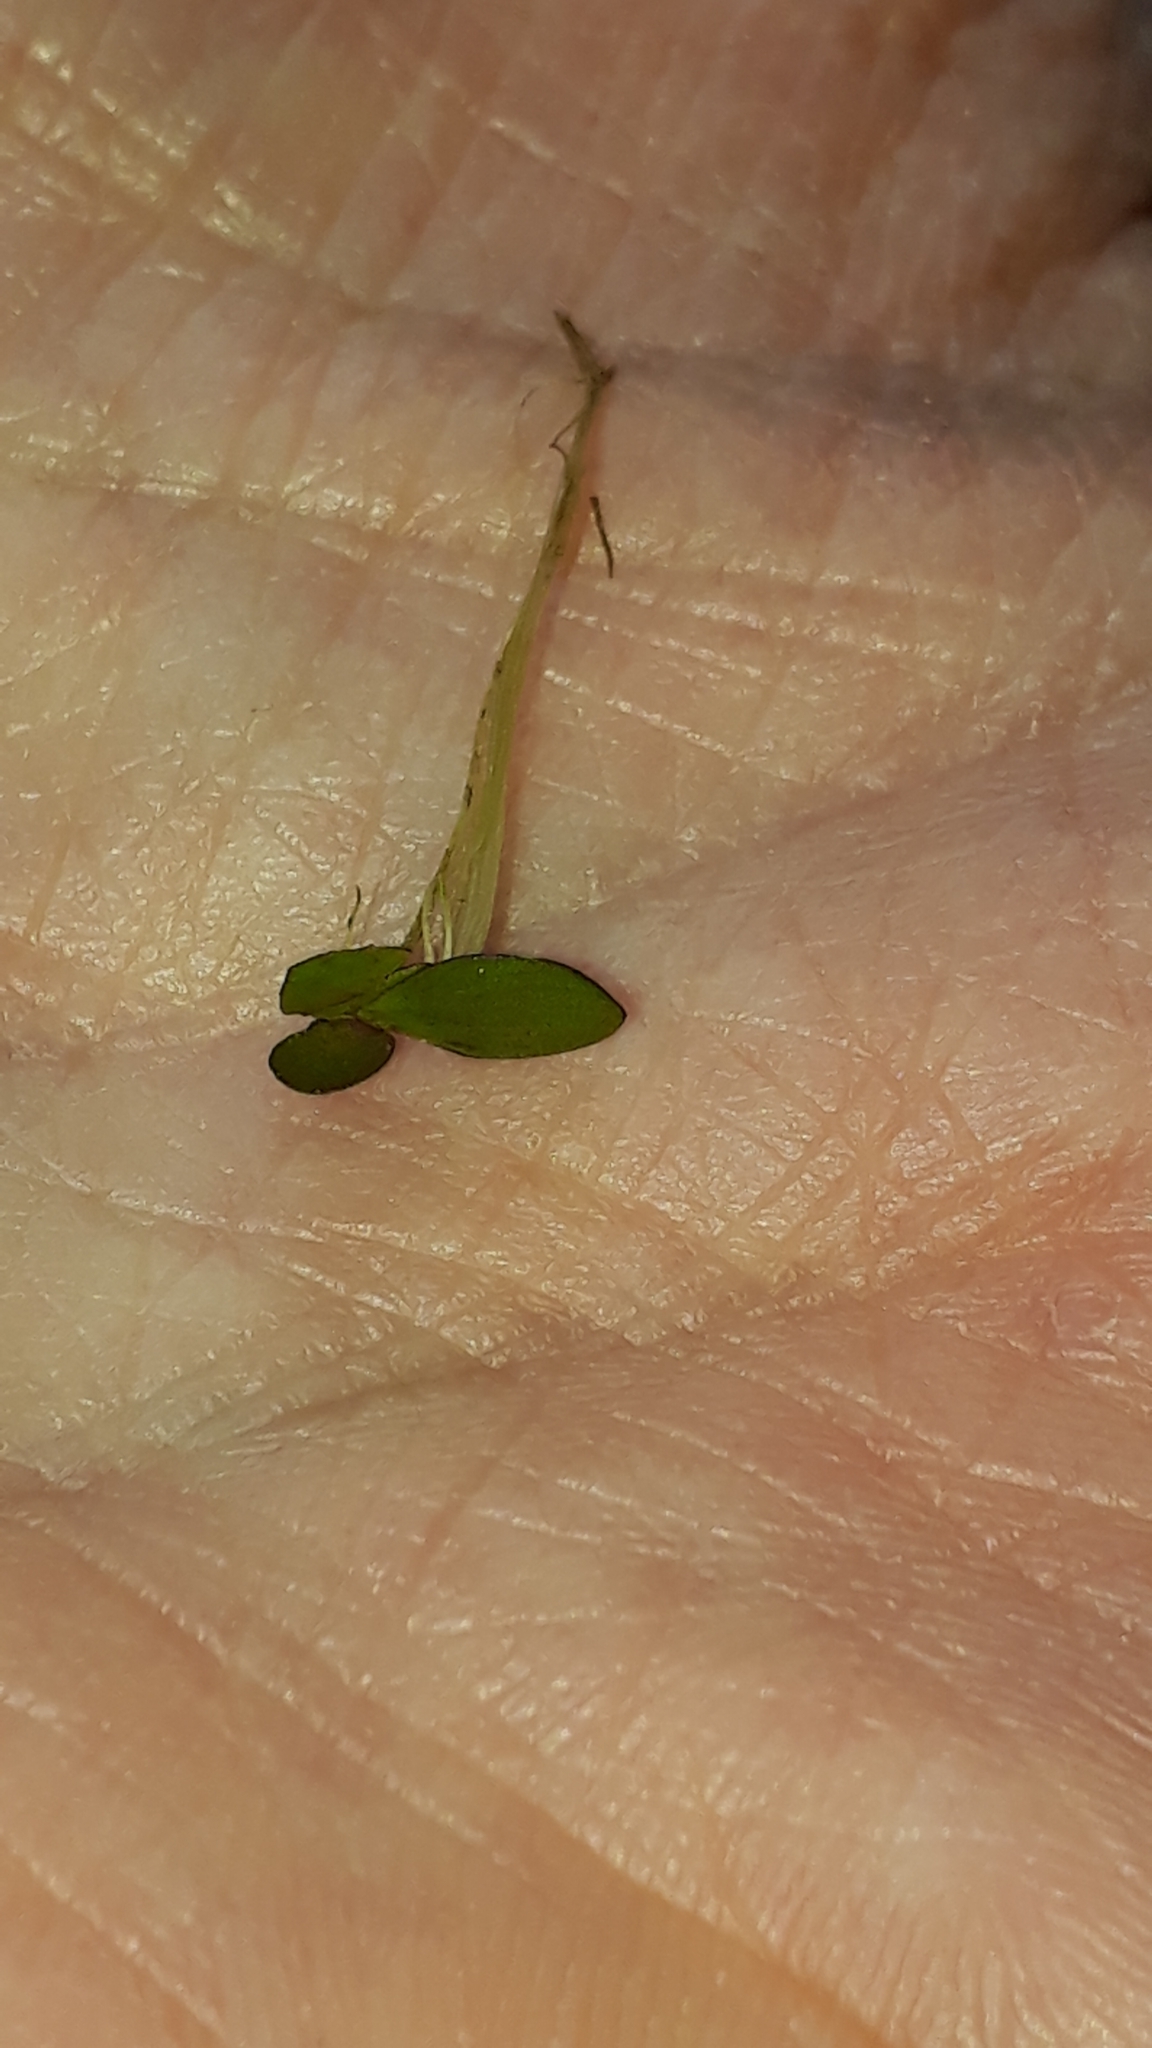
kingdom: Plantae
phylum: Tracheophyta
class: Liliopsida
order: Alismatales
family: Araceae
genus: Spirodela
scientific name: Spirodela polyrhiza
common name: Great duckweed
